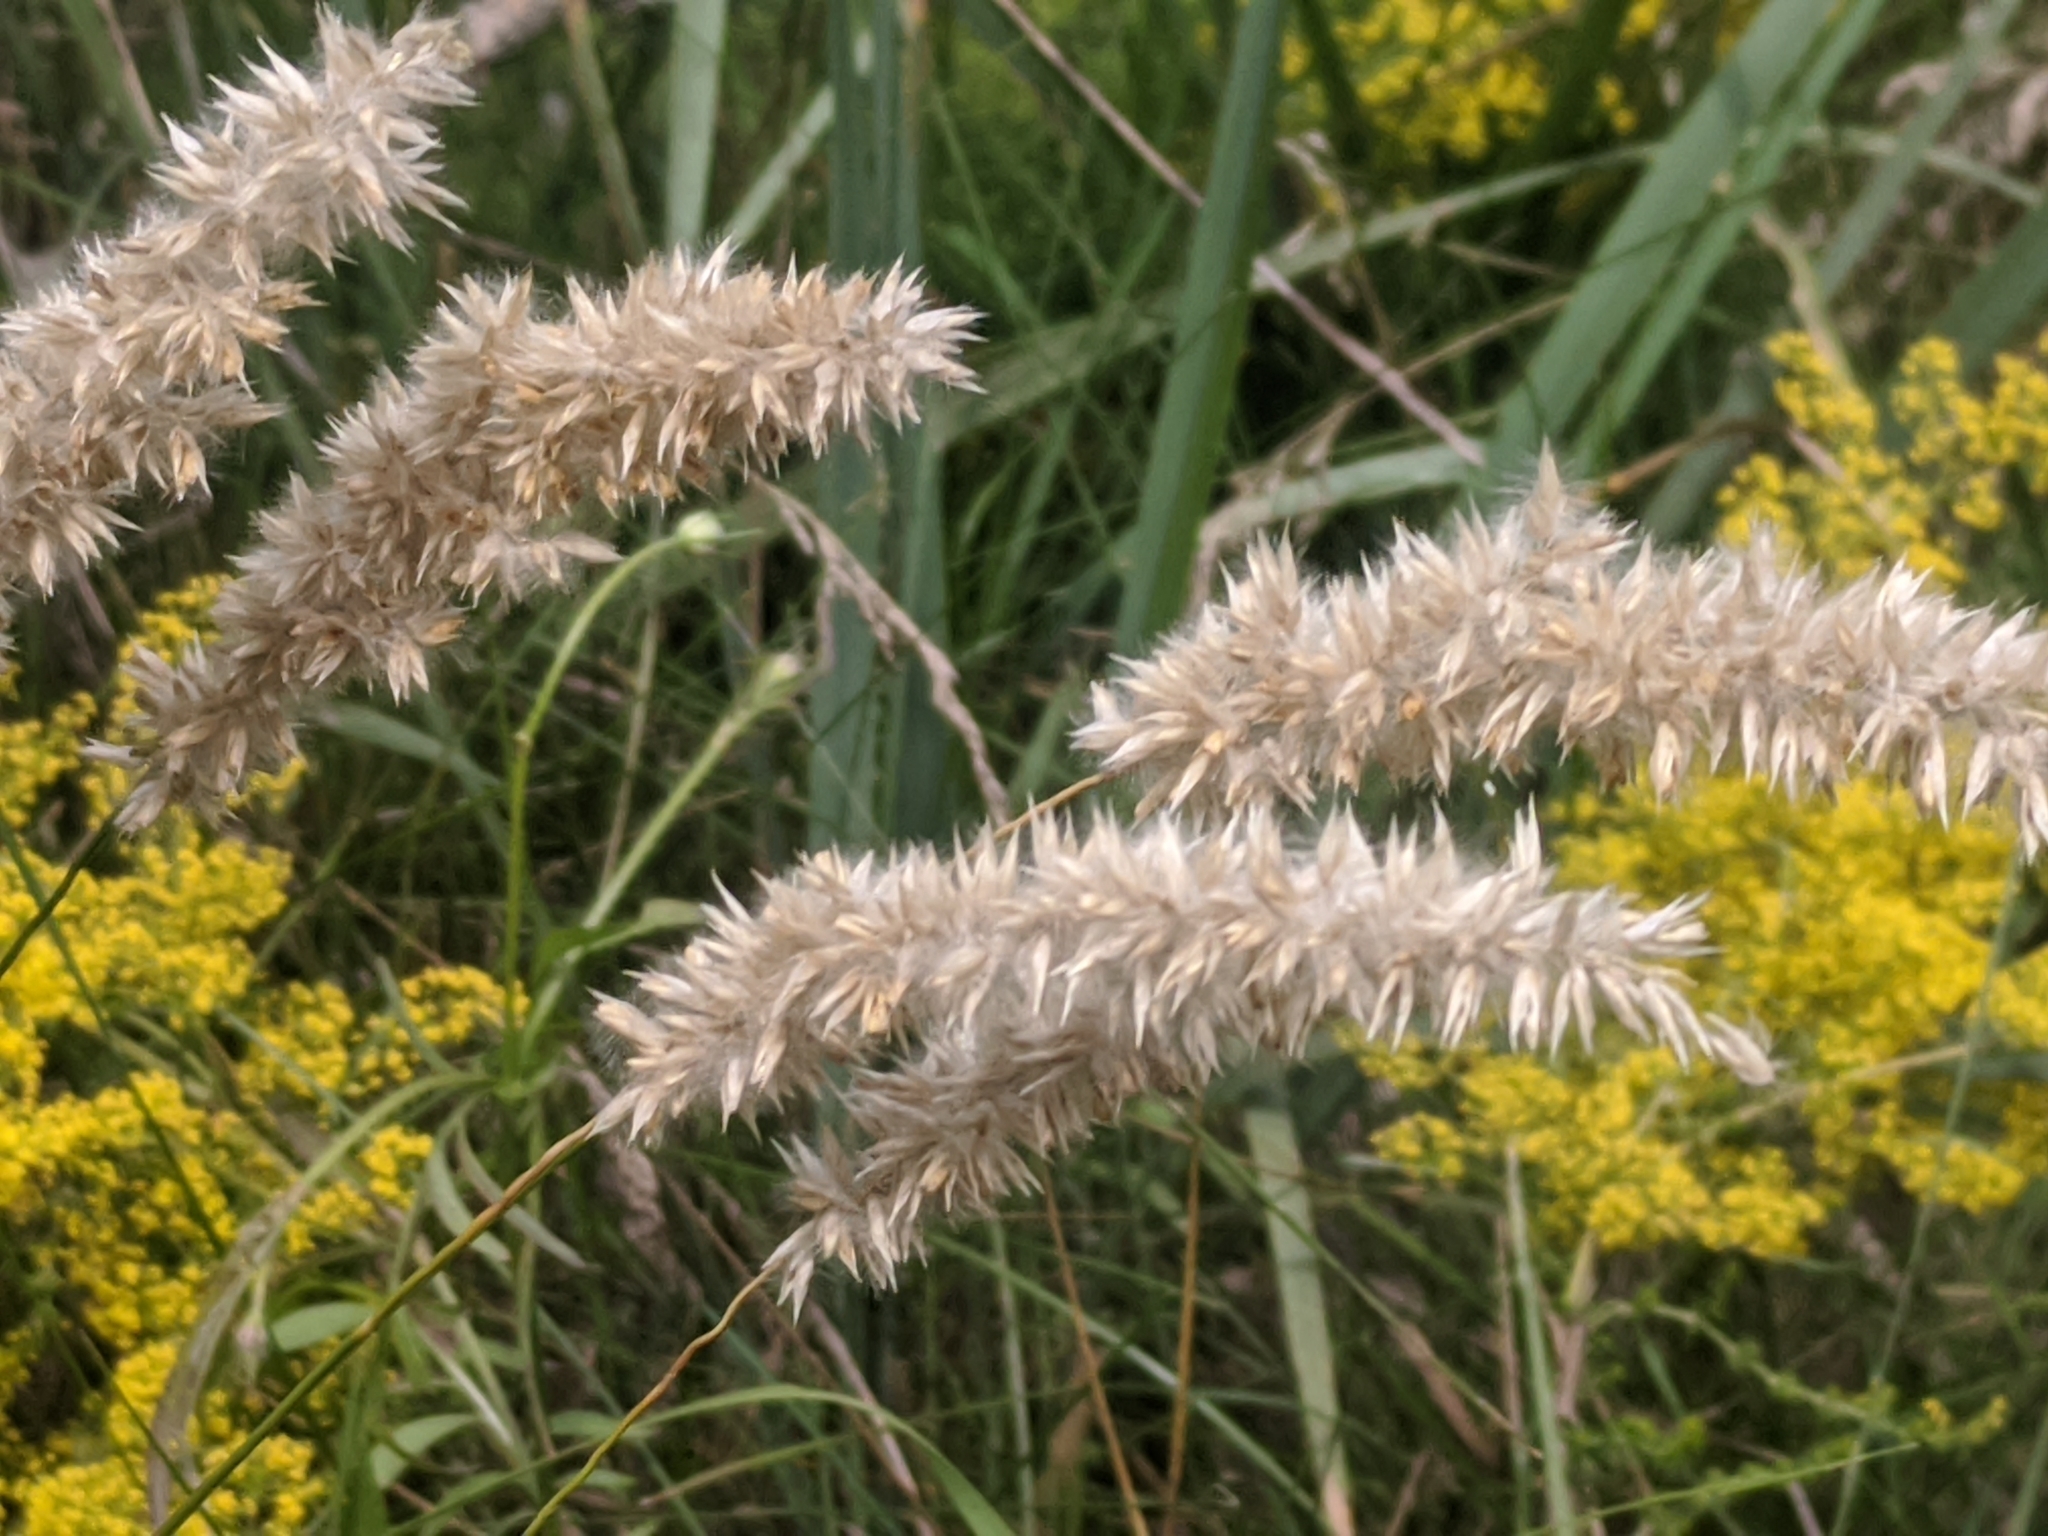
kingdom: Plantae
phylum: Tracheophyta
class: Liliopsida
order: Poales
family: Poaceae
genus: Melica
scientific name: Melica transsilvanica
